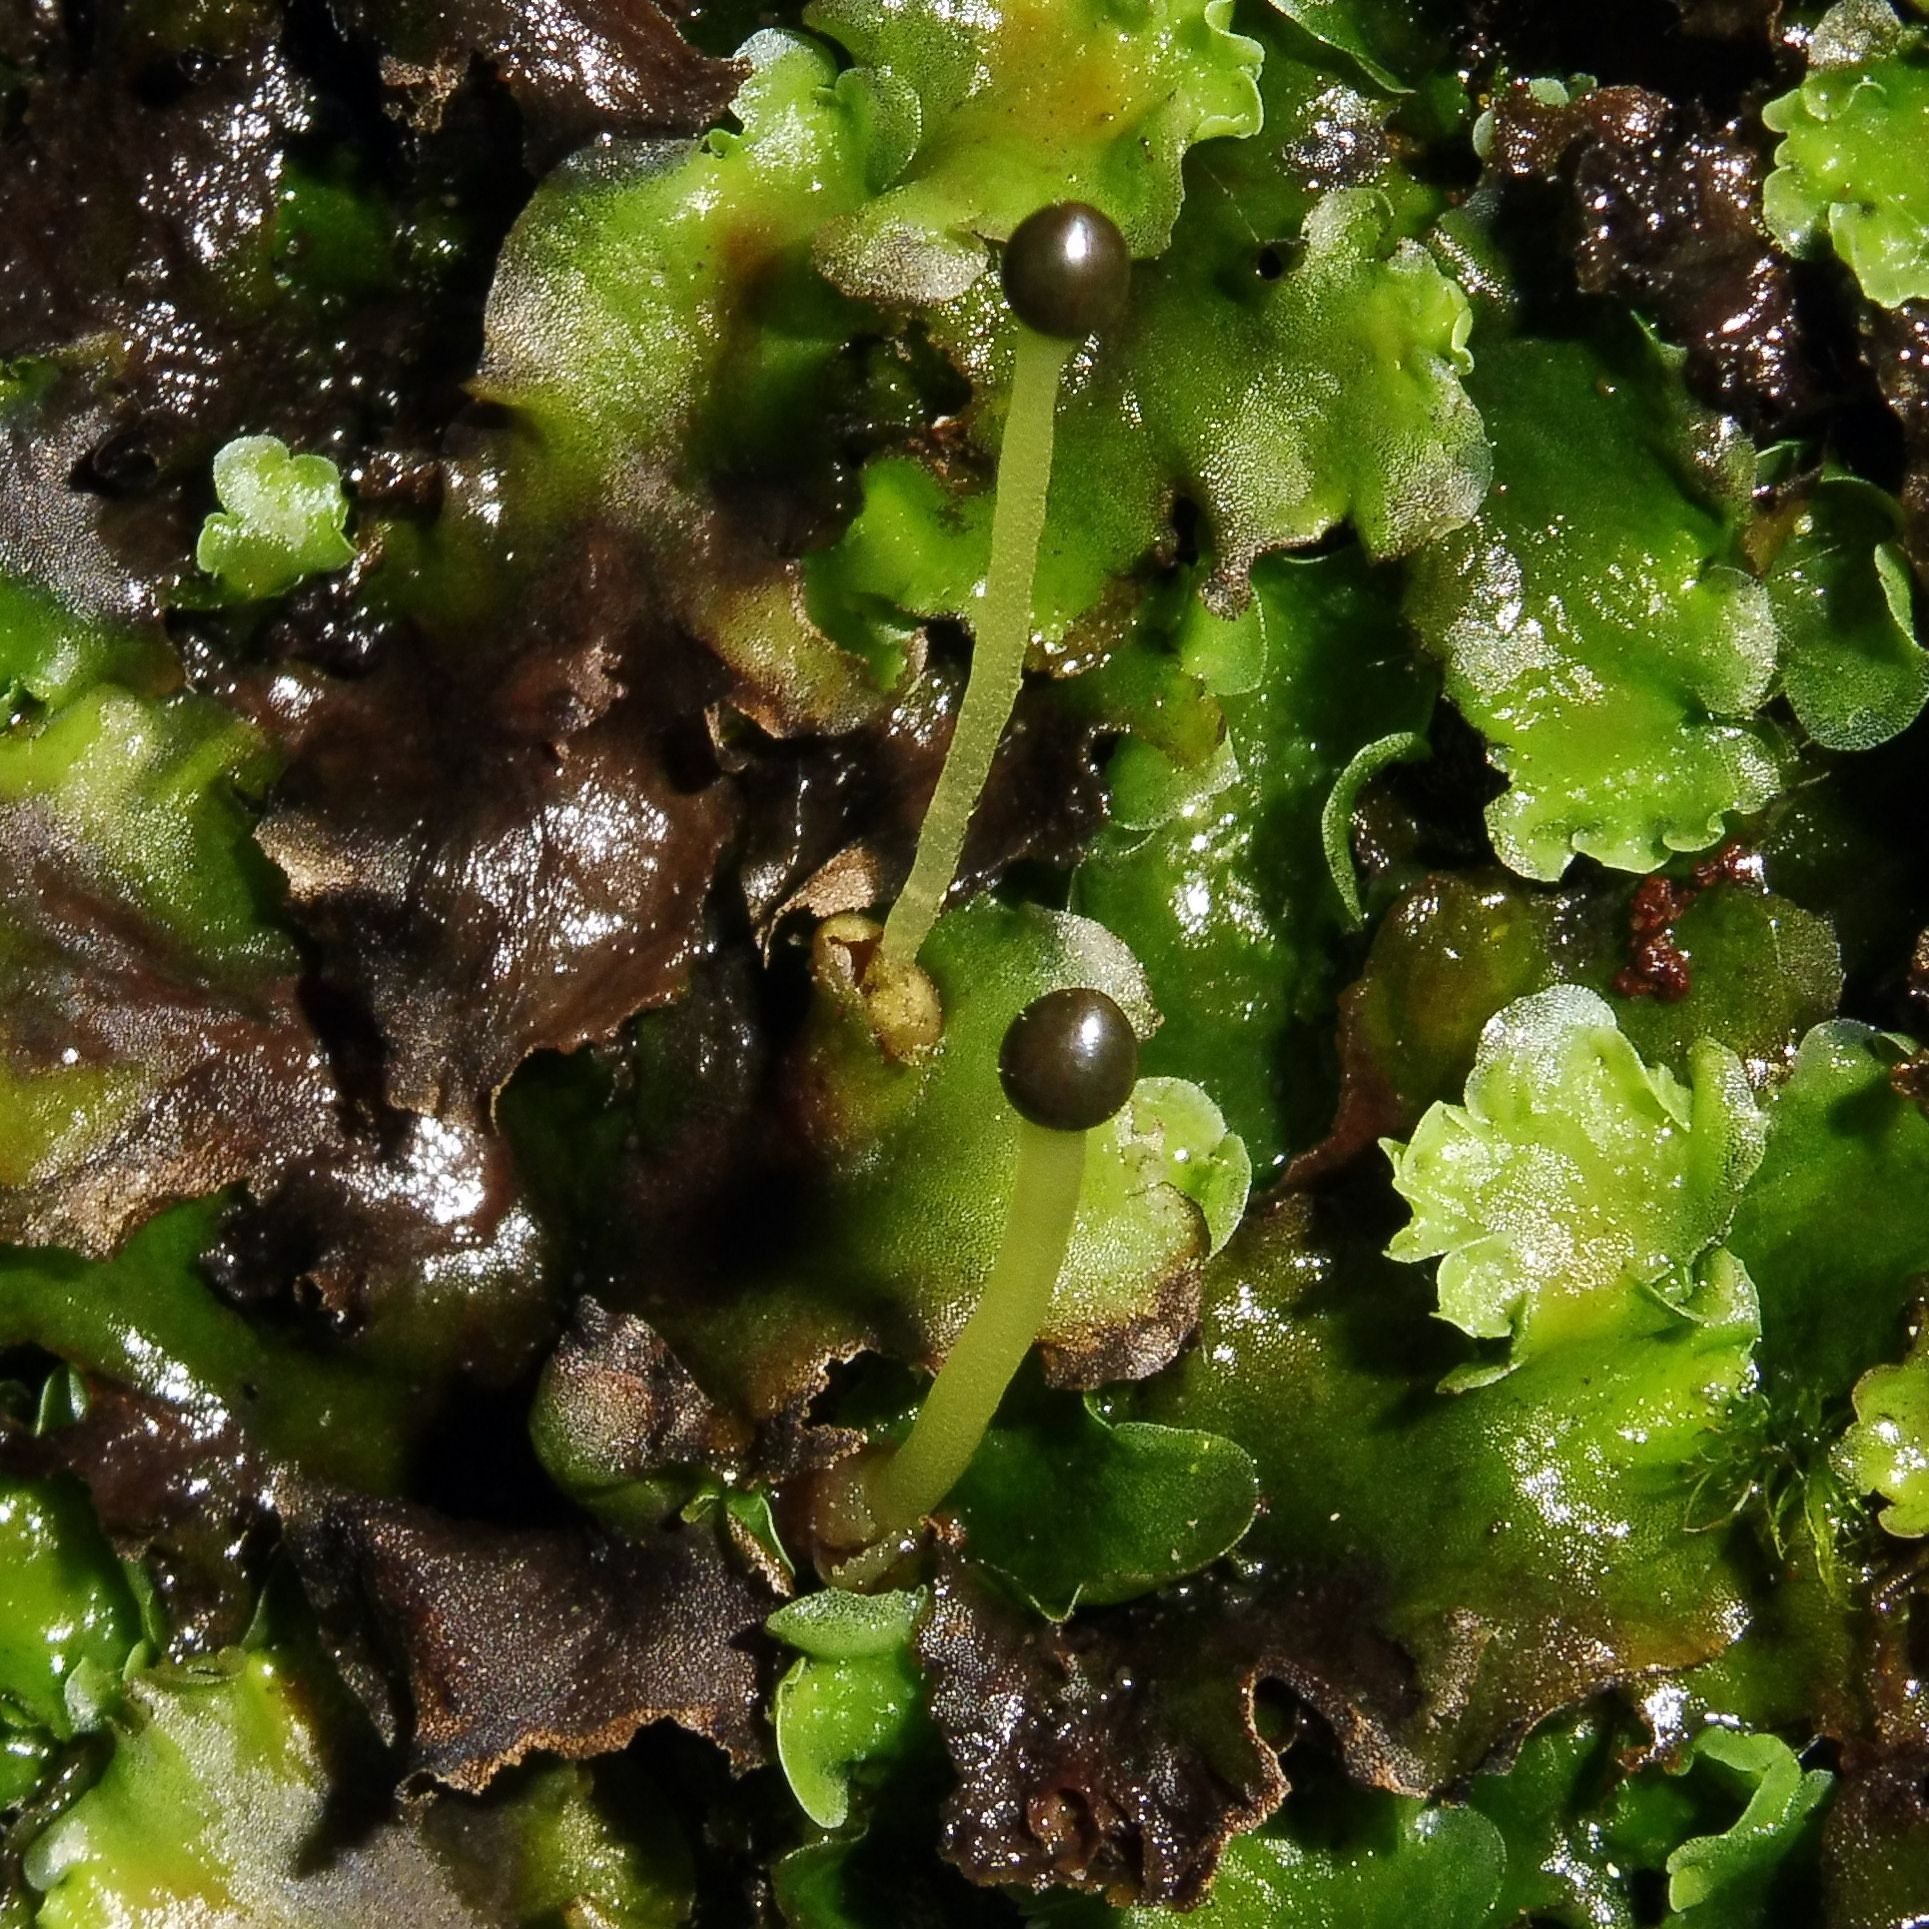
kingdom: Plantae
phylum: Marchantiophyta
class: Jungermanniopsida
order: Pelliales
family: Pelliaceae
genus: Pellia
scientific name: Pellia epiphylla
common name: Common pellia
